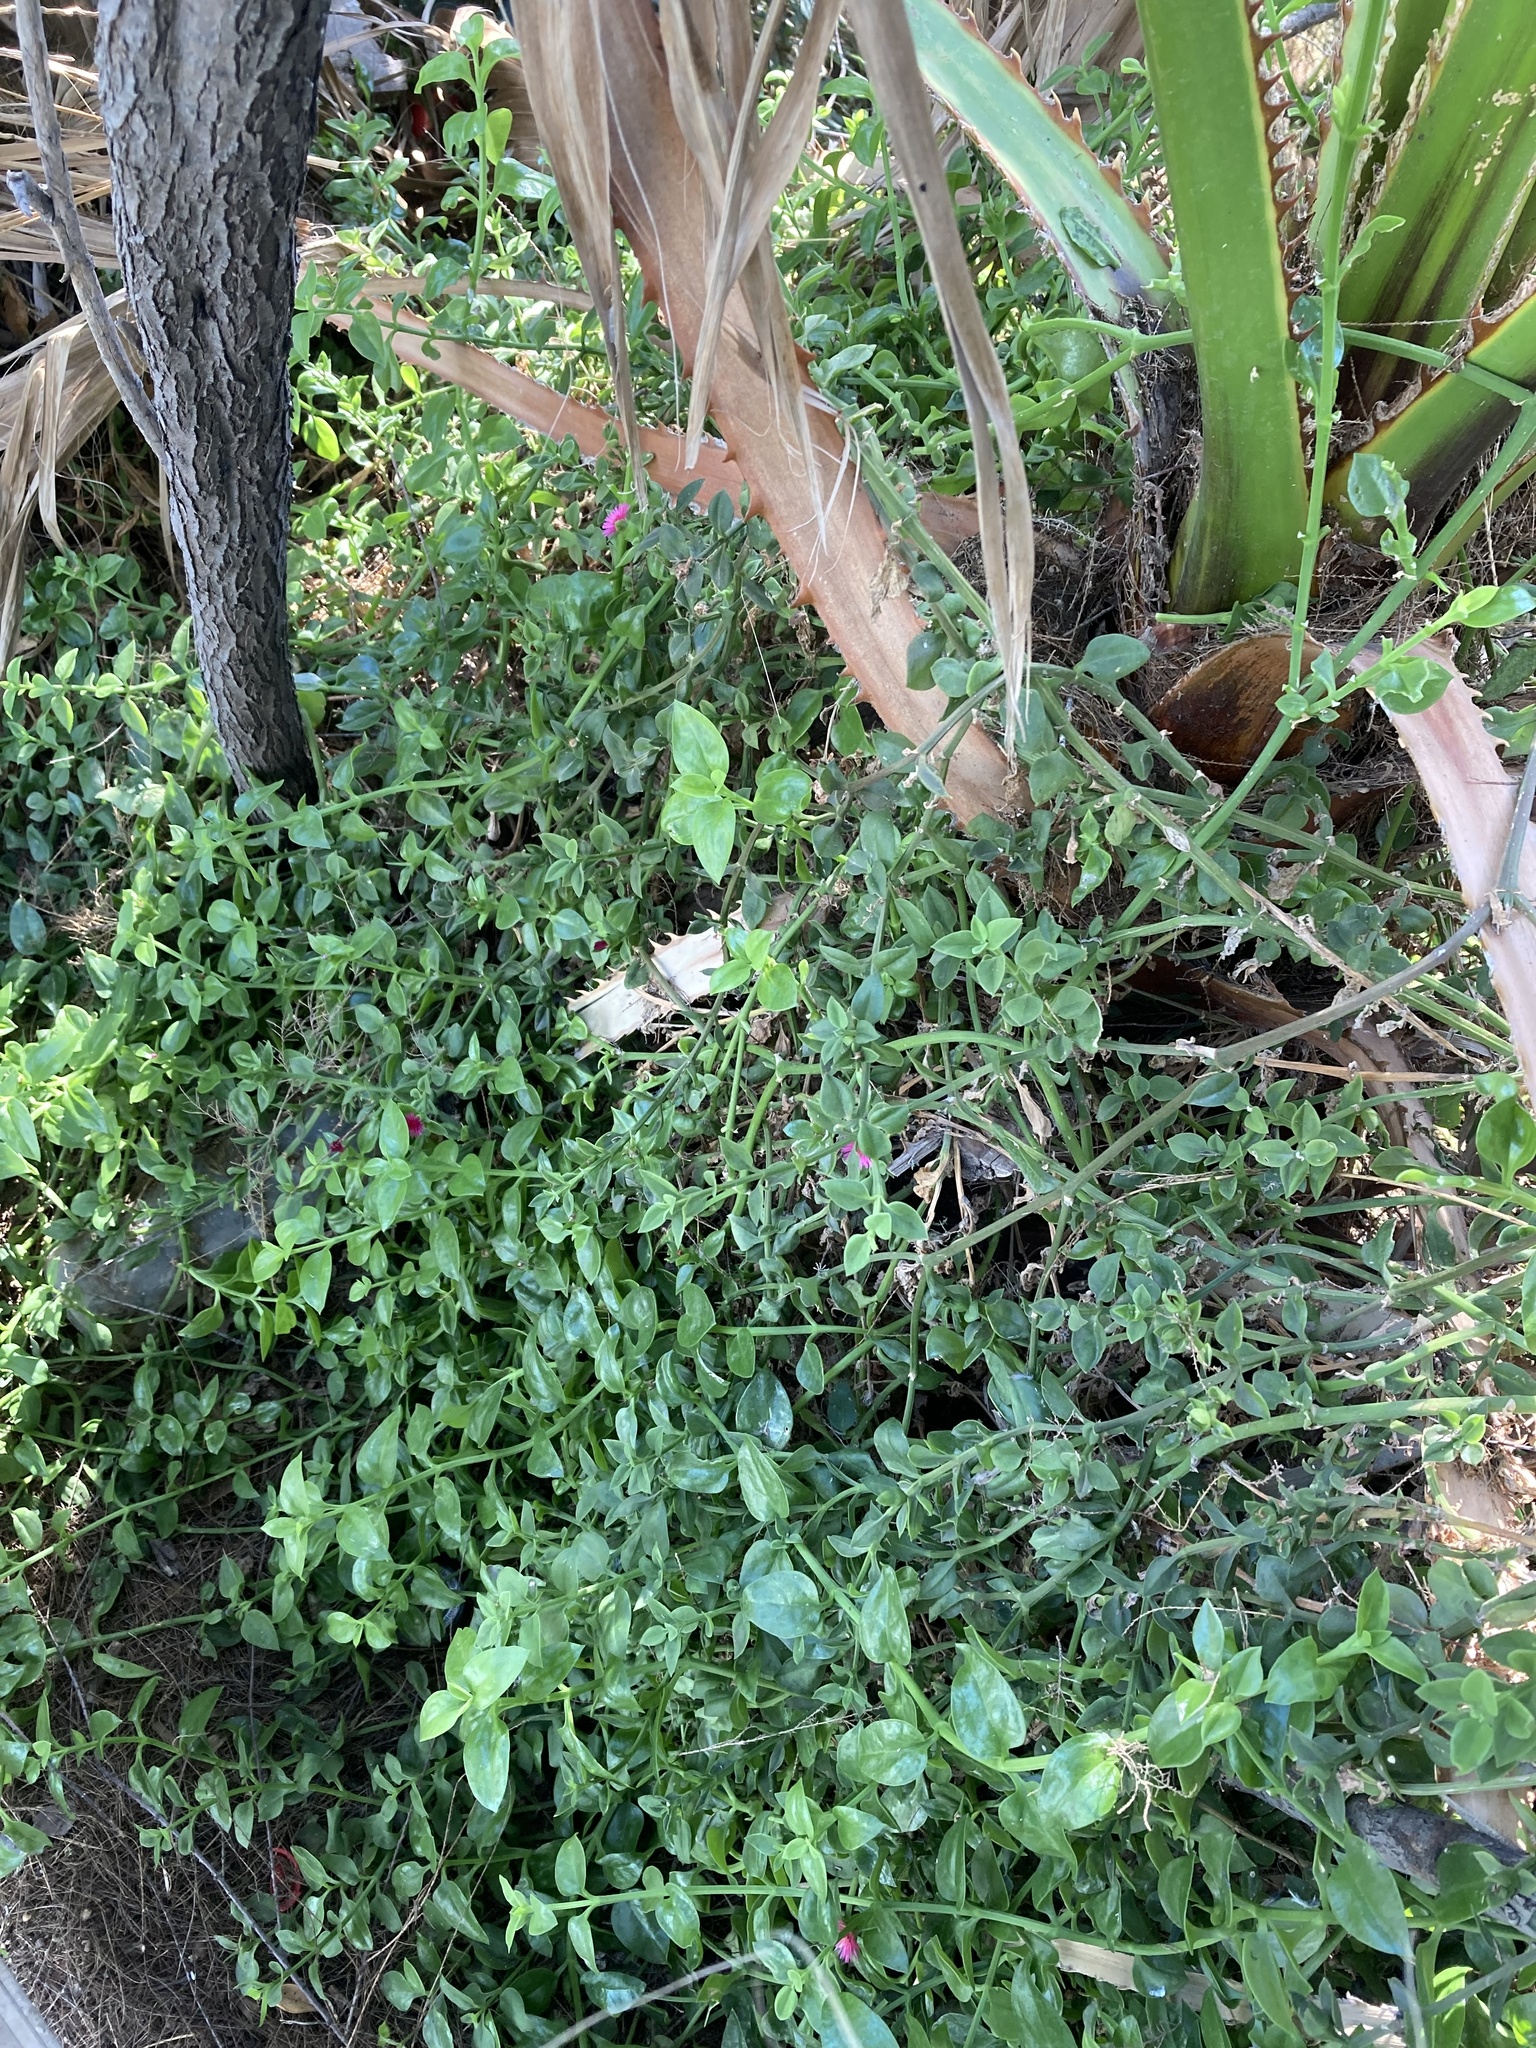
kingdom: Plantae
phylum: Tracheophyta
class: Magnoliopsida
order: Caryophyllales
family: Aizoaceae
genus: Mesembryanthemum
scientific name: Mesembryanthemum cordifolium
